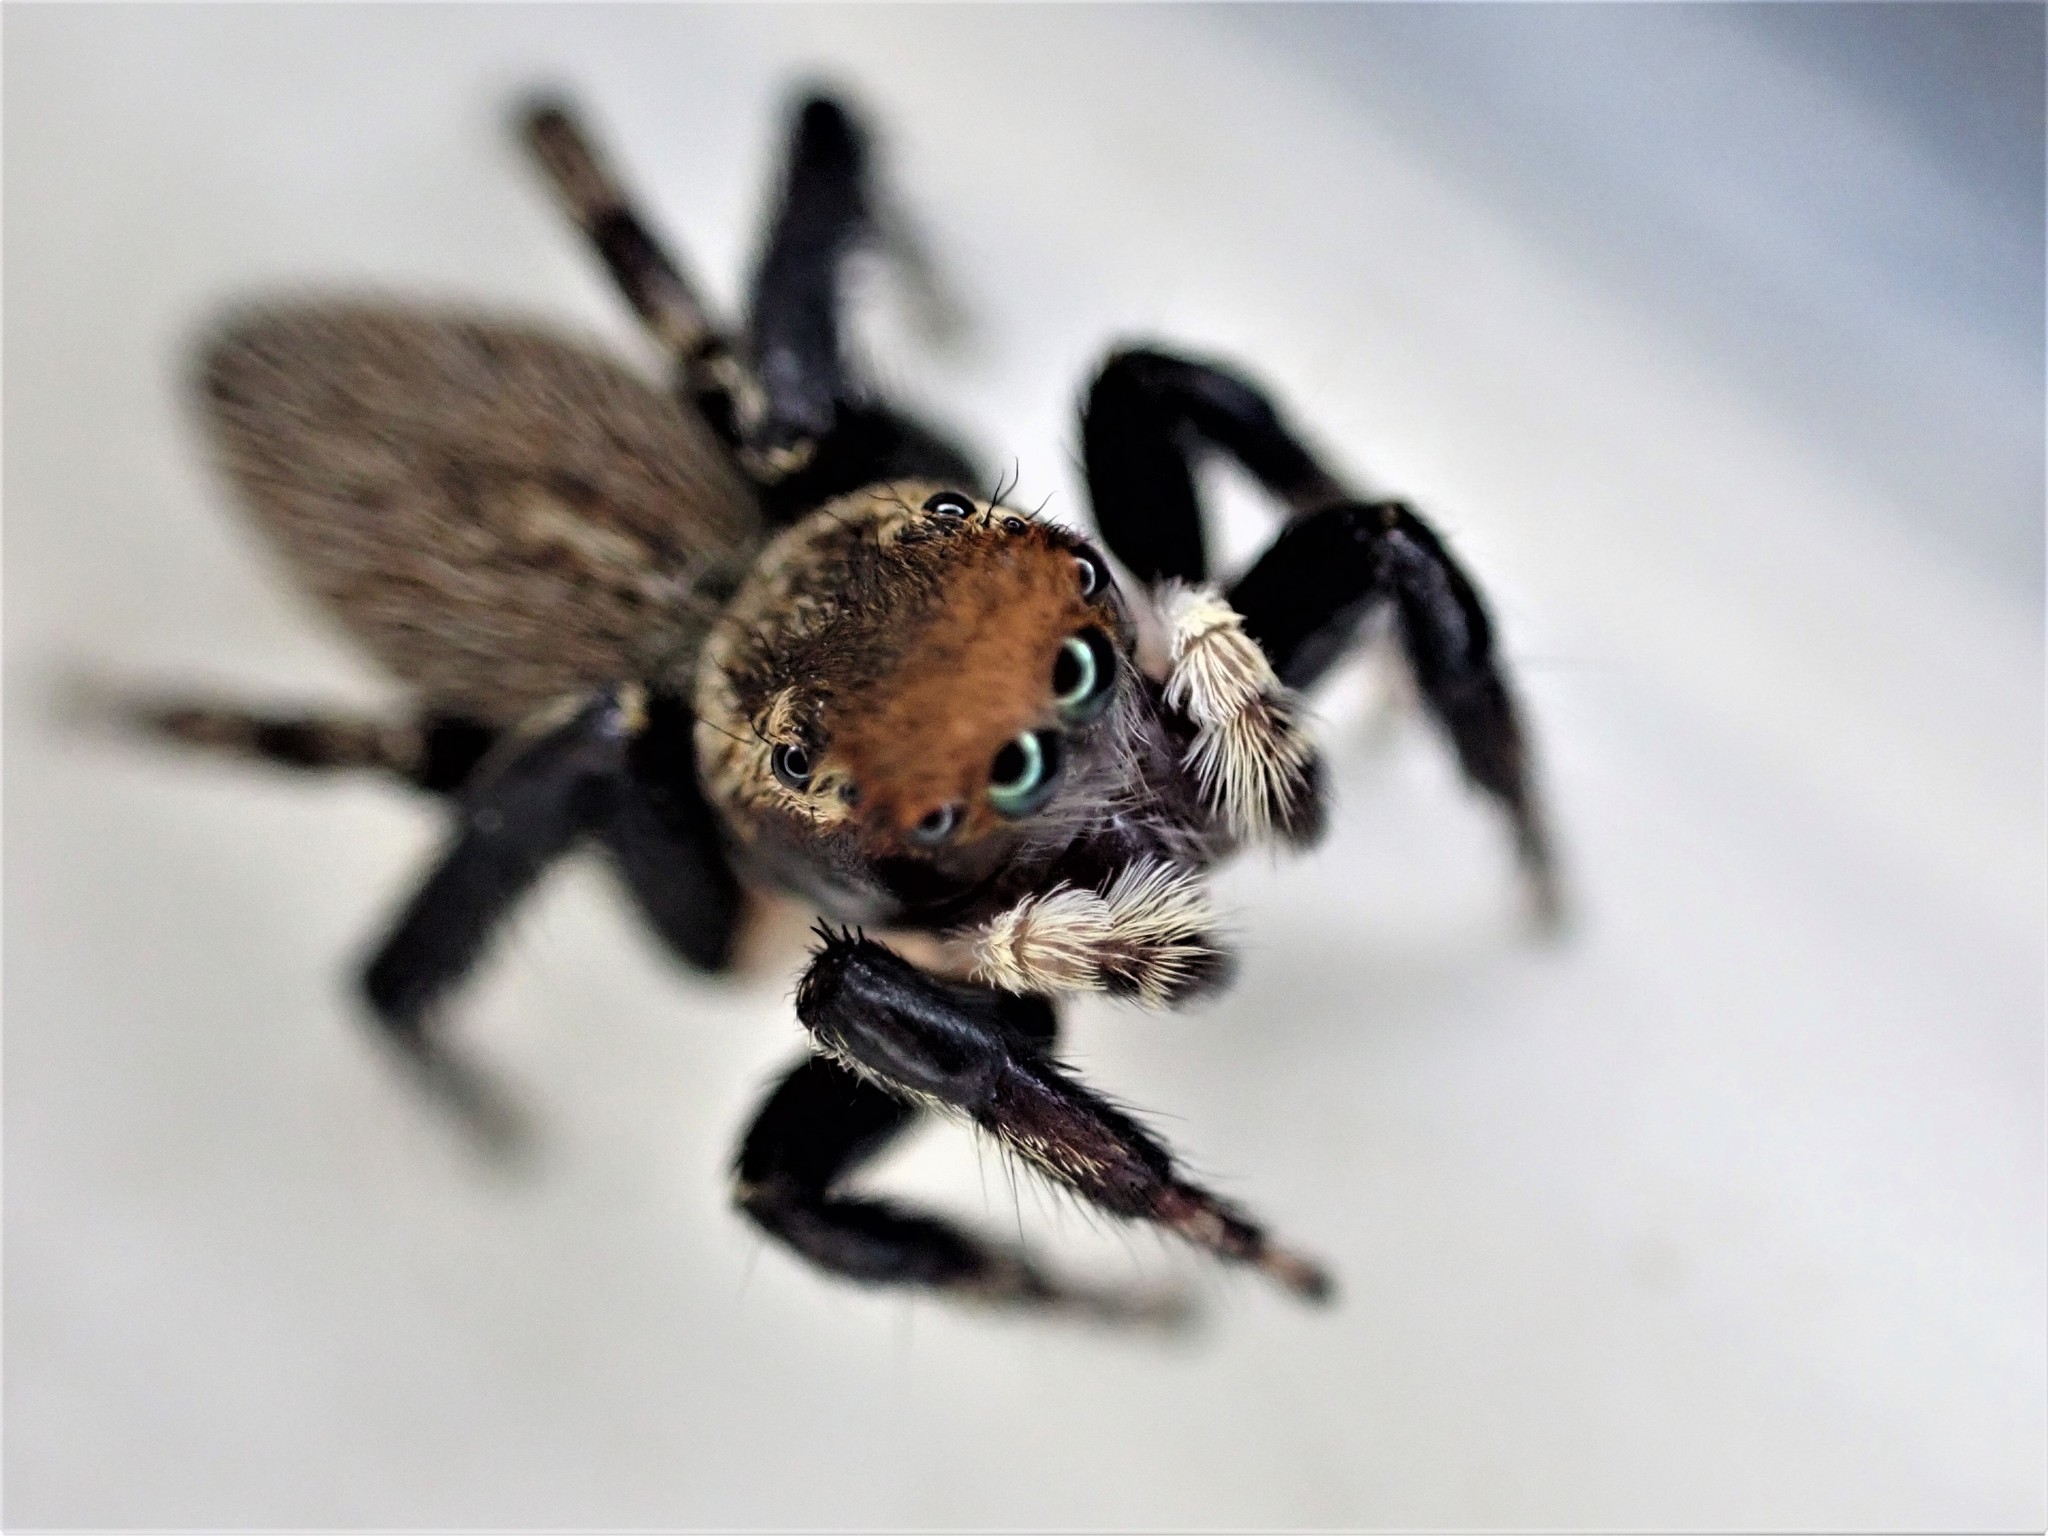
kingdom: Animalia
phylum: Arthropoda
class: Arachnida
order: Araneae
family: Salticidae
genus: Maratus
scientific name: Maratus griseus
